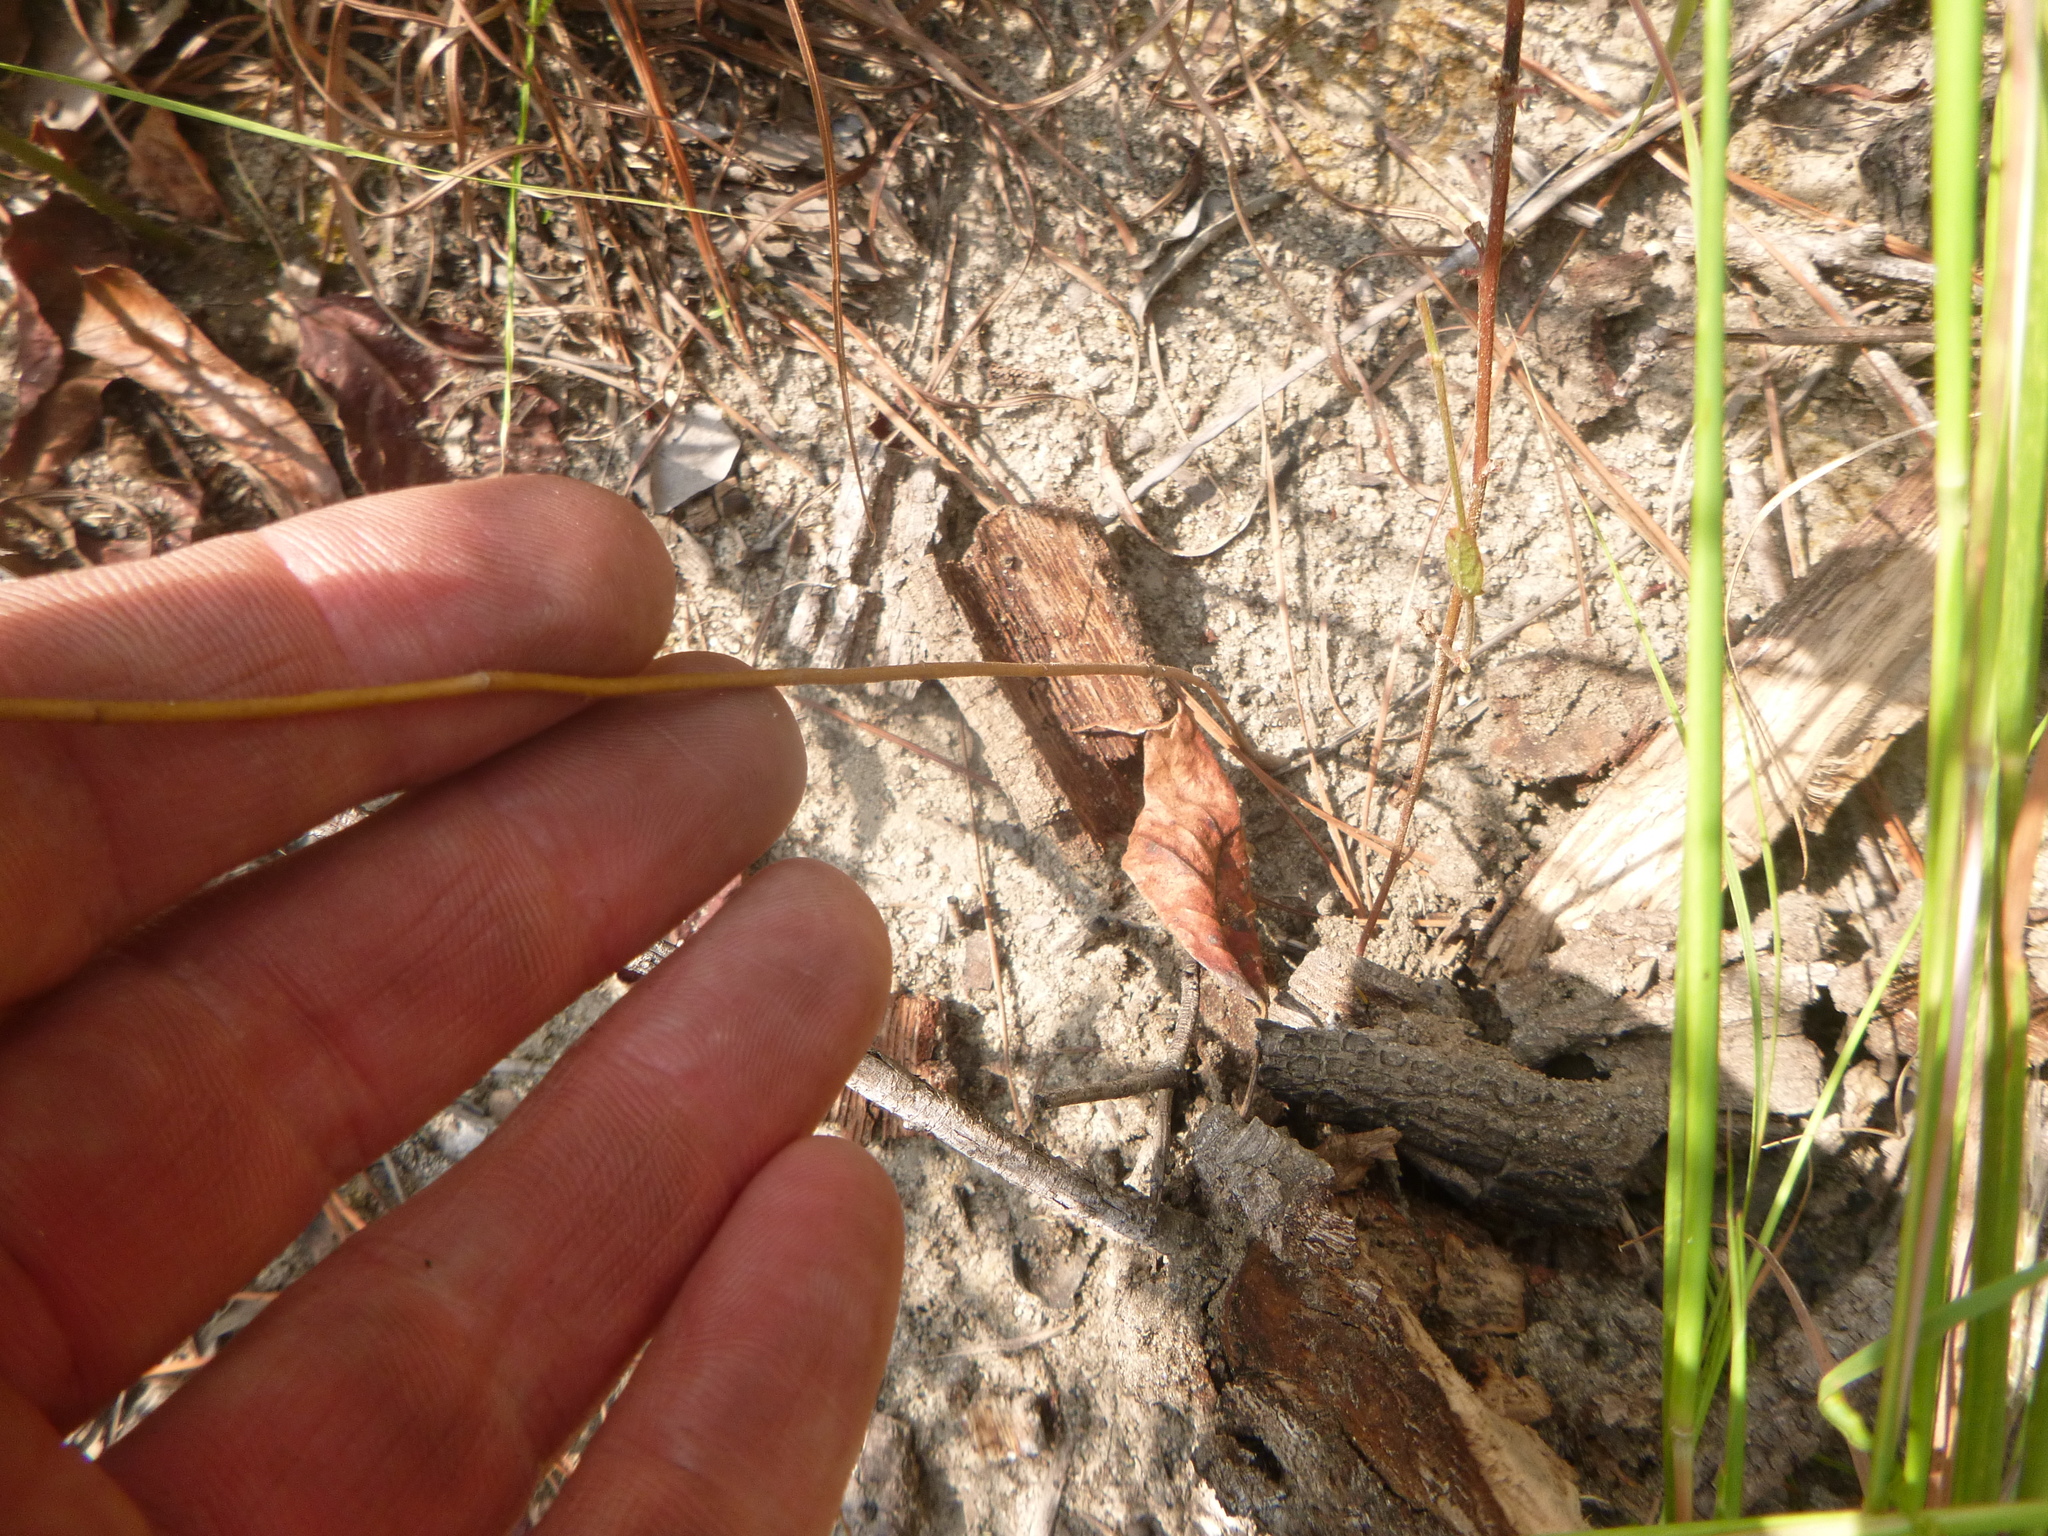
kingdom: Plantae
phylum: Tracheophyta
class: Magnoliopsida
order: Asterales
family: Asteraceae
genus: Iva
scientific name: Iva microcephala
